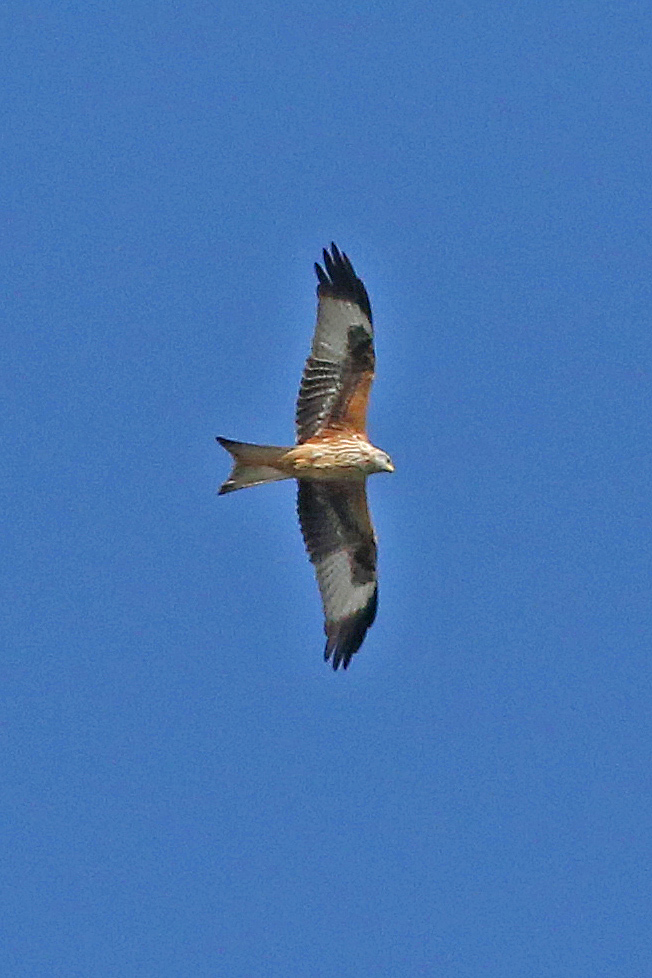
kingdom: Animalia
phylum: Chordata
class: Aves
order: Accipitriformes
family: Accipitridae
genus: Milvus
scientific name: Milvus milvus
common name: Red kite
